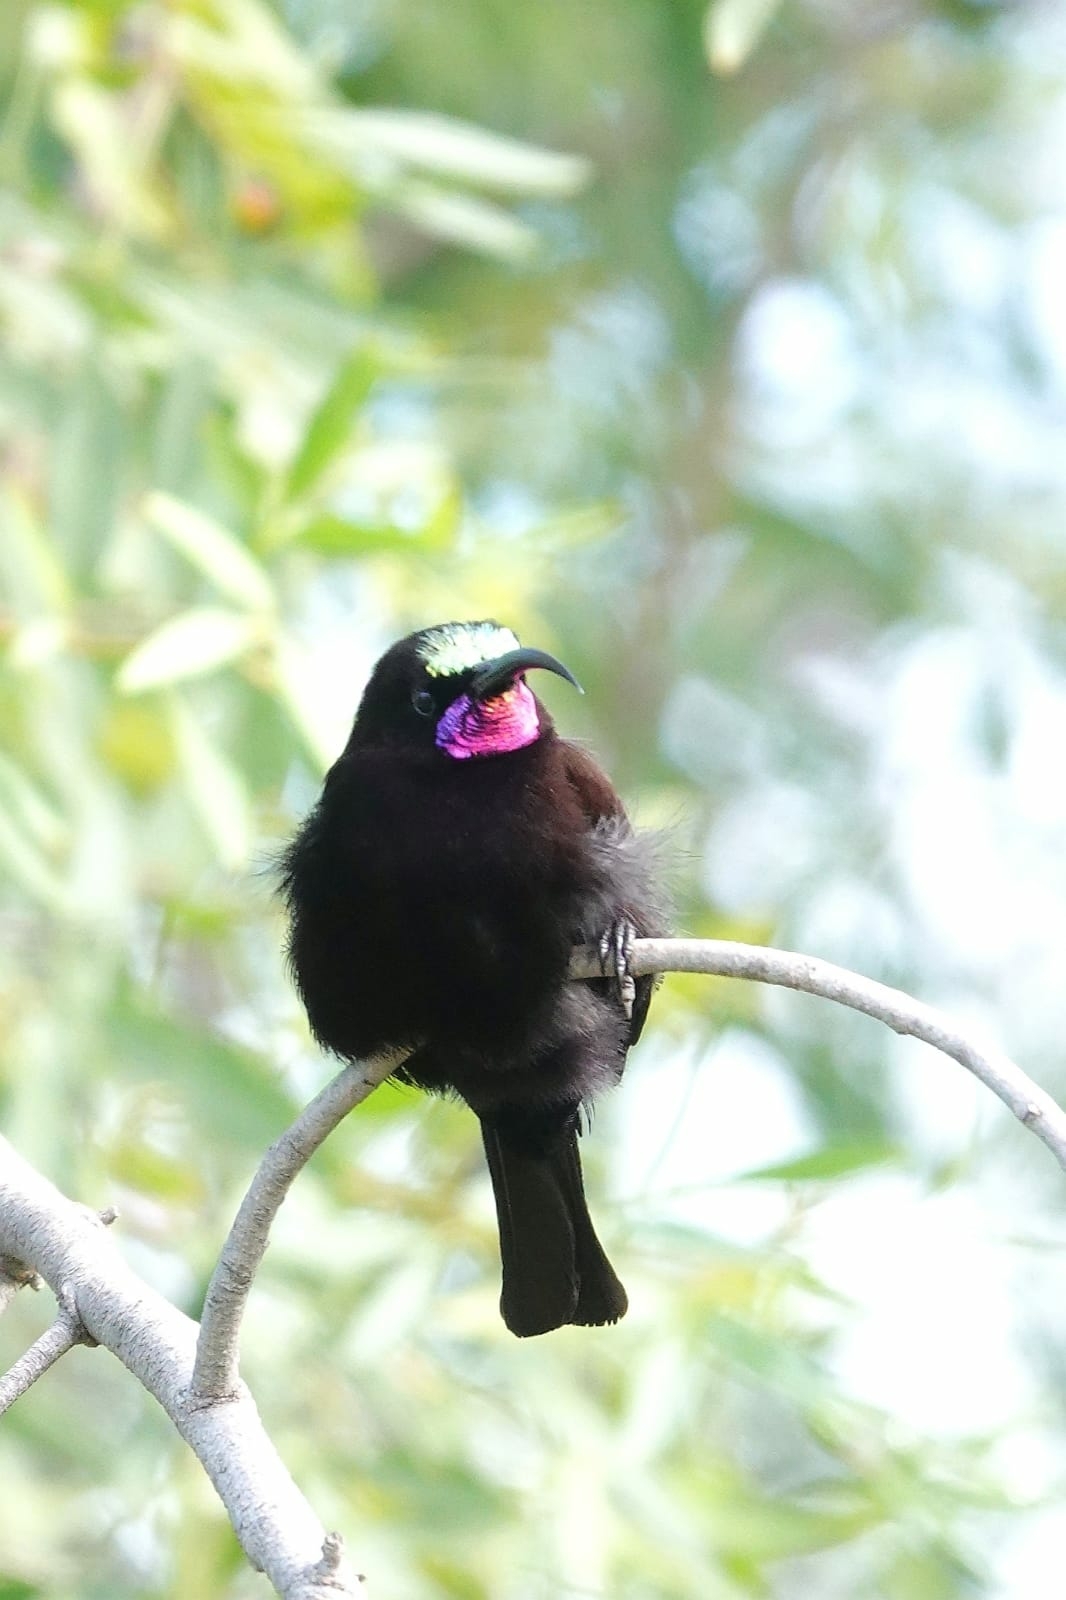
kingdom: Animalia
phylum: Chordata
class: Aves
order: Passeriformes
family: Nectariniidae
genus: Chalcomitra
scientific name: Chalcomitra amethystina
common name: Amethyst sunbird
